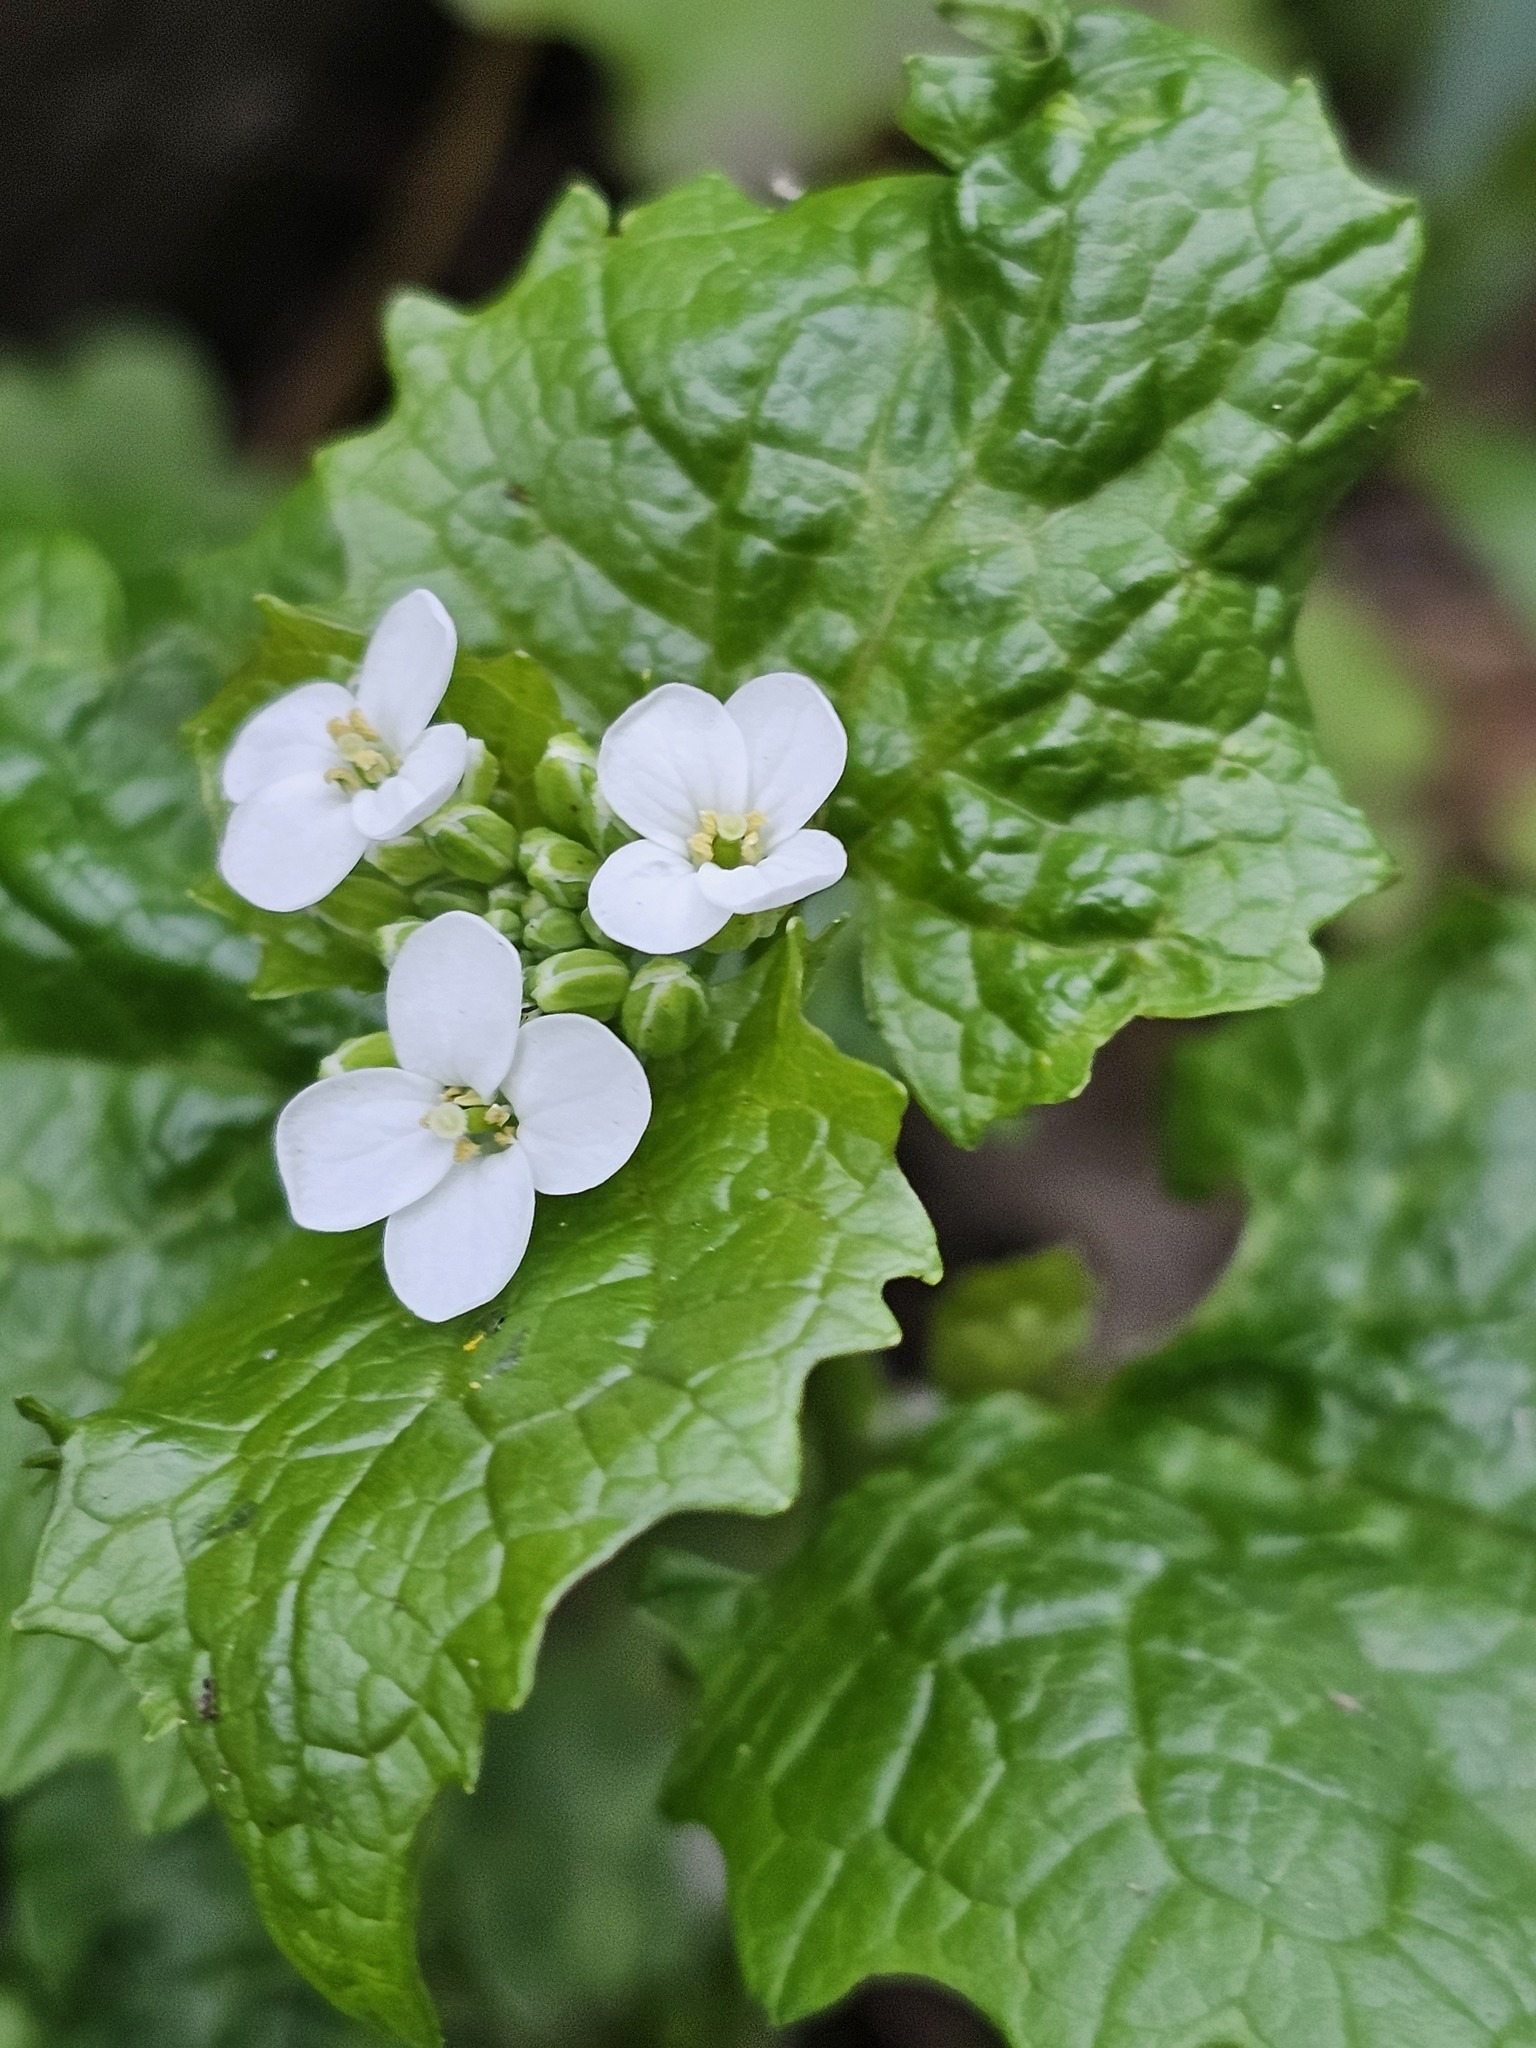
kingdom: Plantae
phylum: Tracheophyta
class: Magnoliopsida
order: Brassicales
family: Brassicaceae
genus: Alliaria
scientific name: Alliaria petiolata
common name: Garlic mustard
